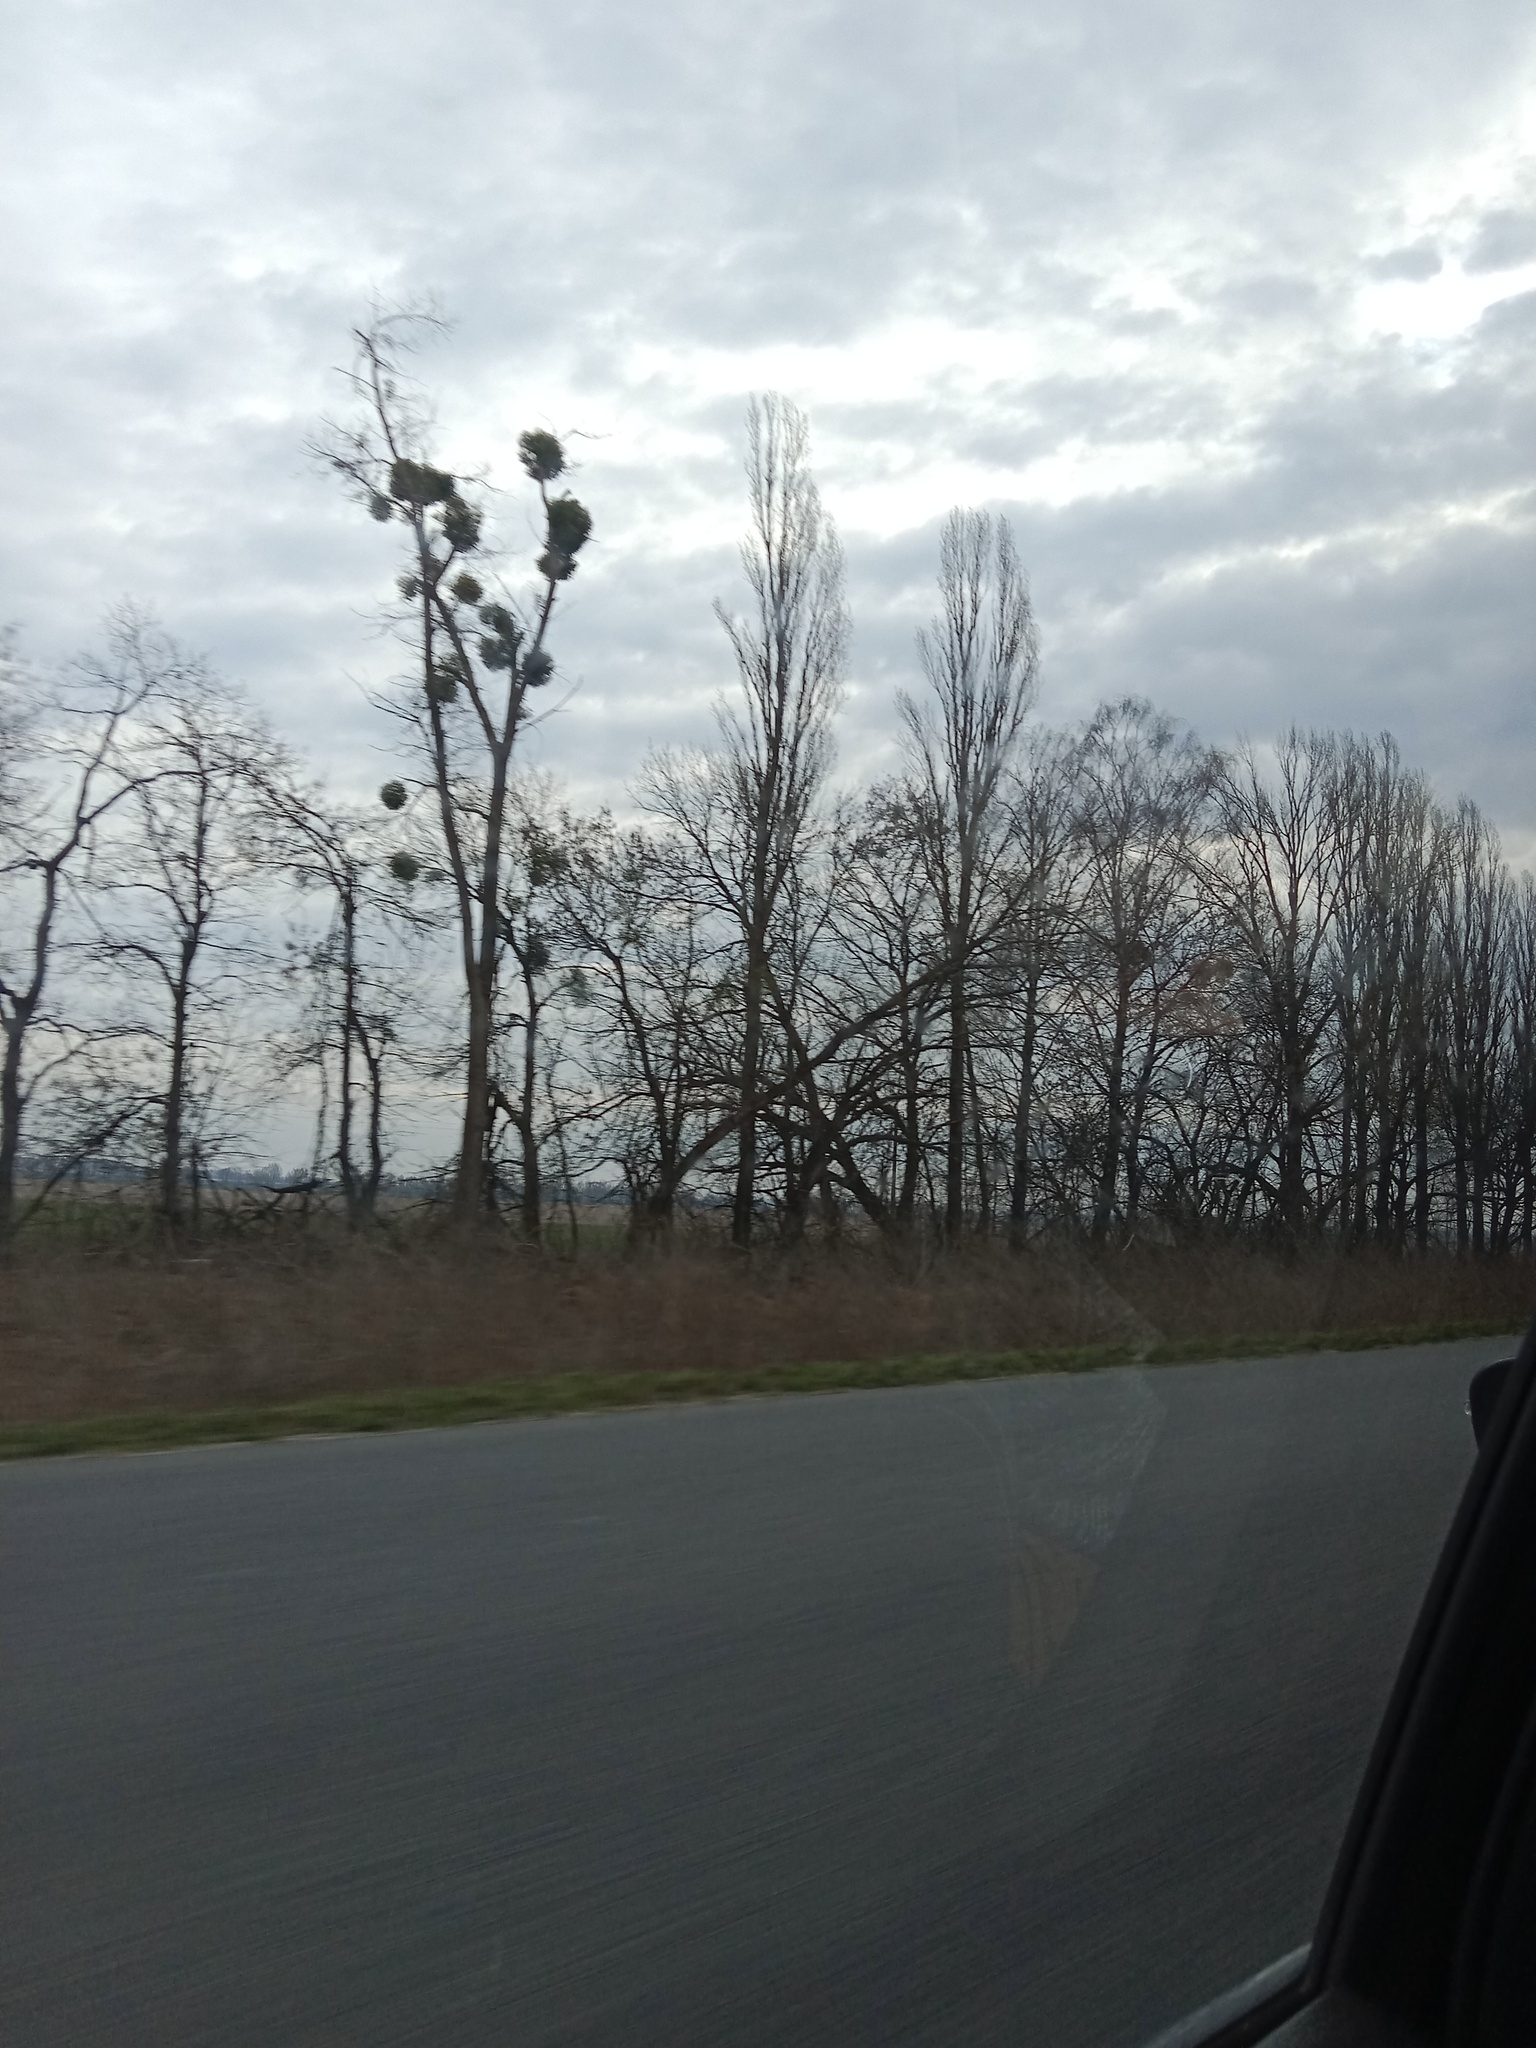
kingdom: Plantae
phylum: Tracheophyta
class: Magnoliopsida
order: Santalales
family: Viscaceae
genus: Viscum
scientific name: Viscum album
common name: Mistletoe
